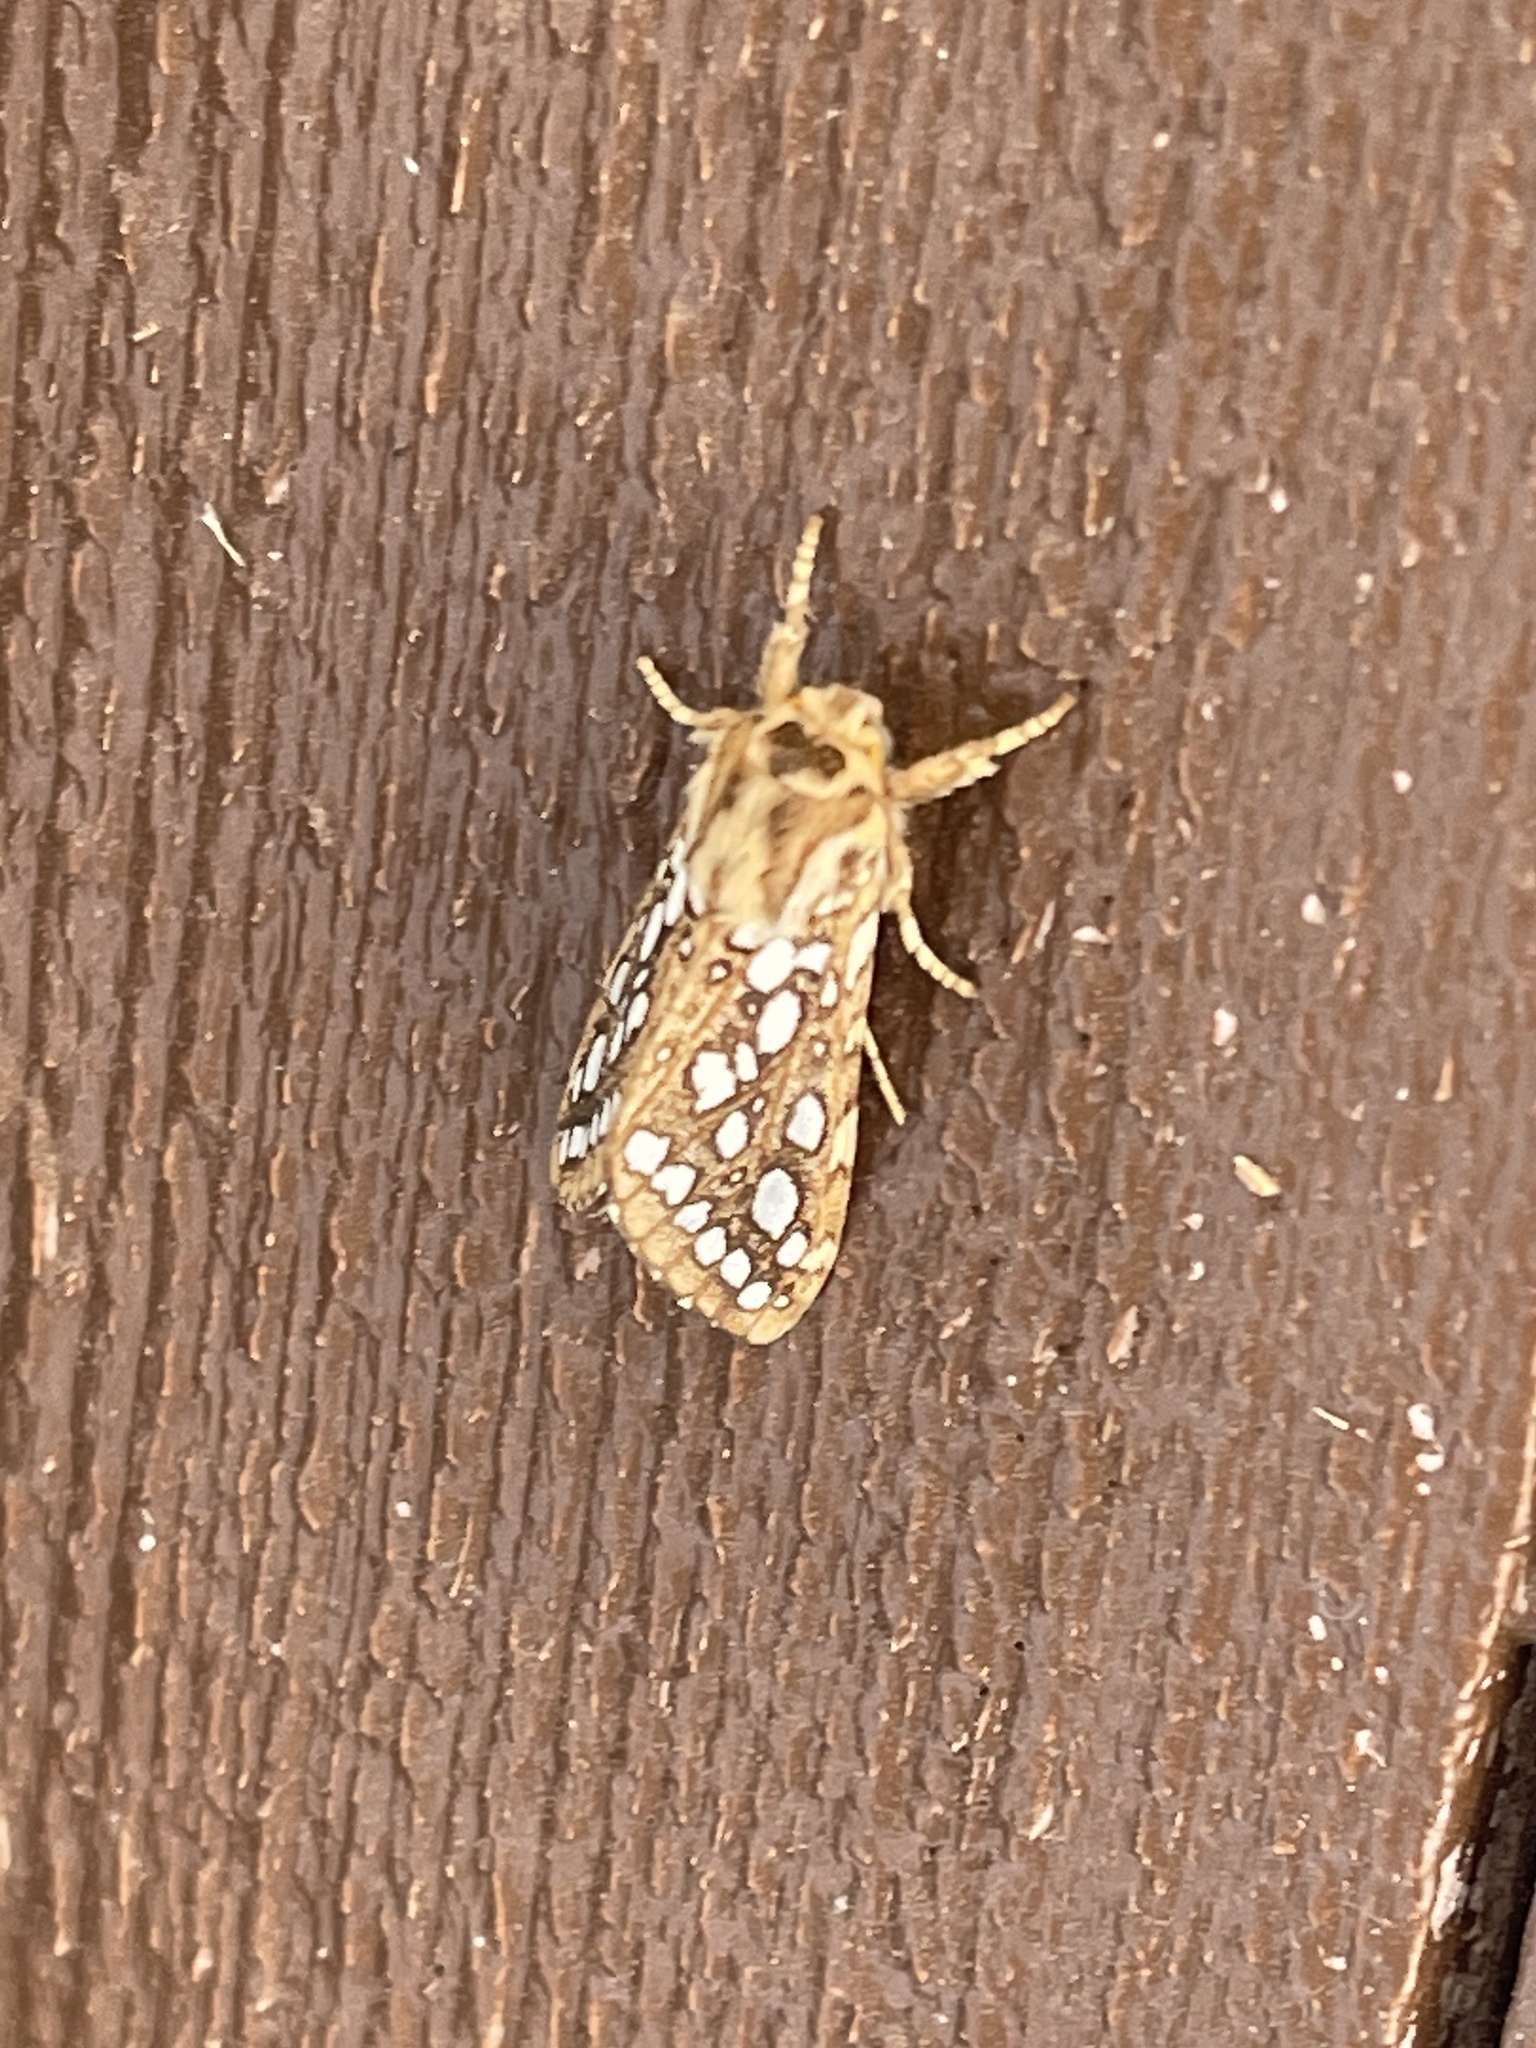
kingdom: Animalia
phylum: Arthropoda
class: Insecta
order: Lepidoptera
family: Erebidae
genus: Lophocampa
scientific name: Lophocampa argentata
